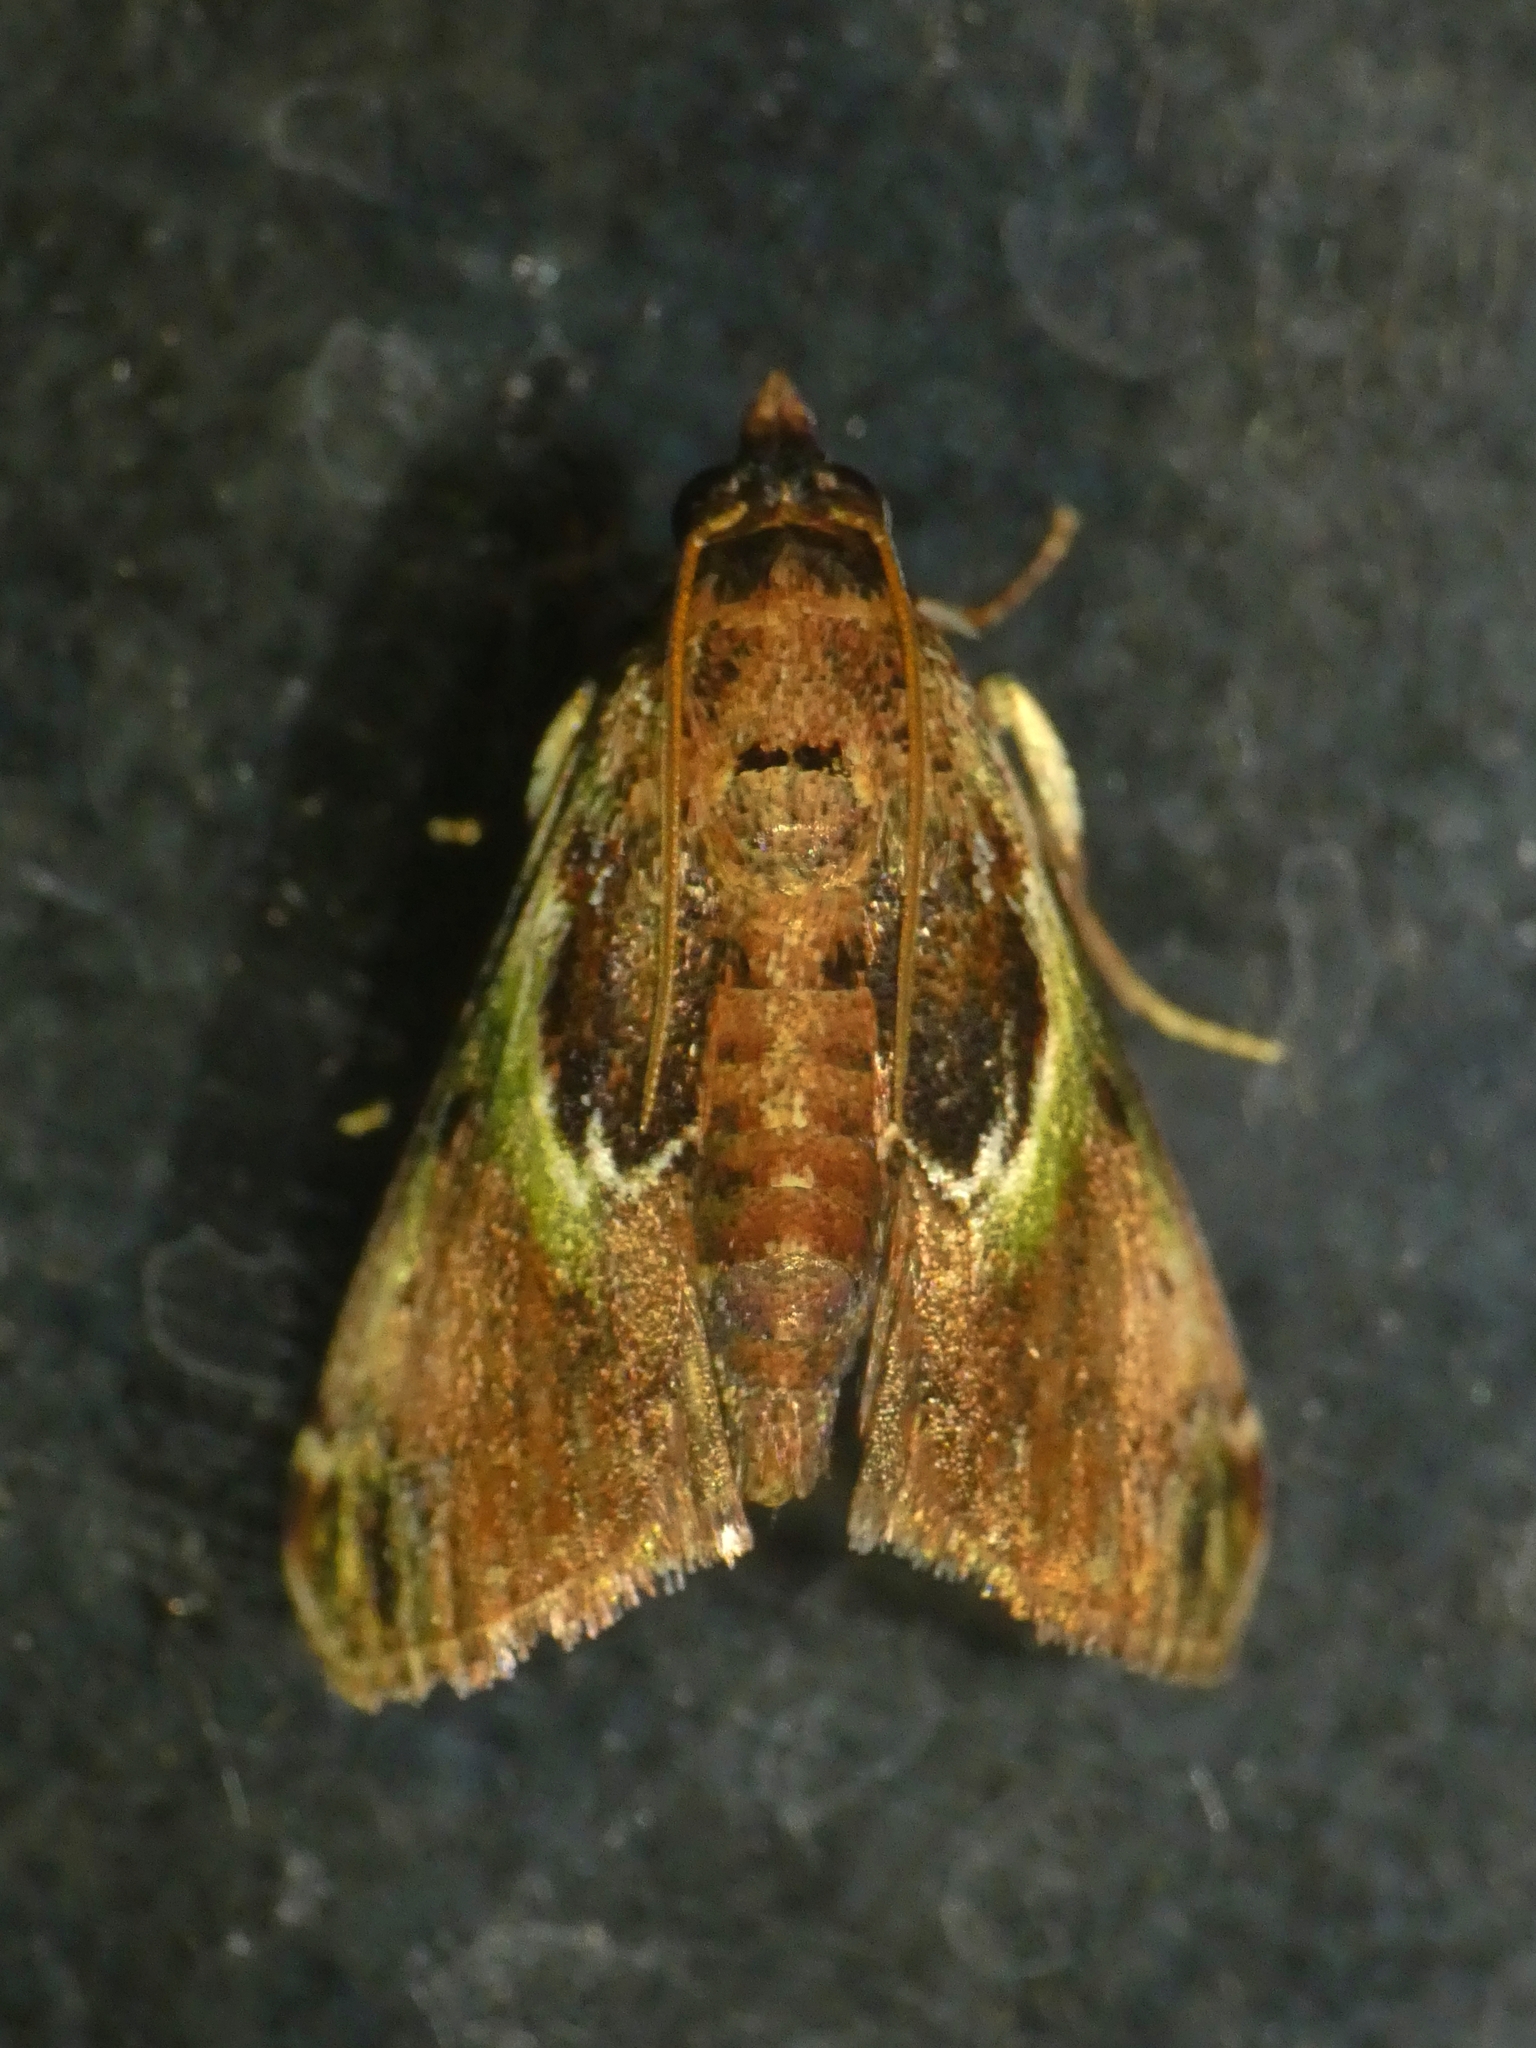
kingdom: Animalia
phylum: Arthropoda
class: Insecta
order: Lepidoptera
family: Pyralidae
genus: Doddiana
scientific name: Doddiana callizona
